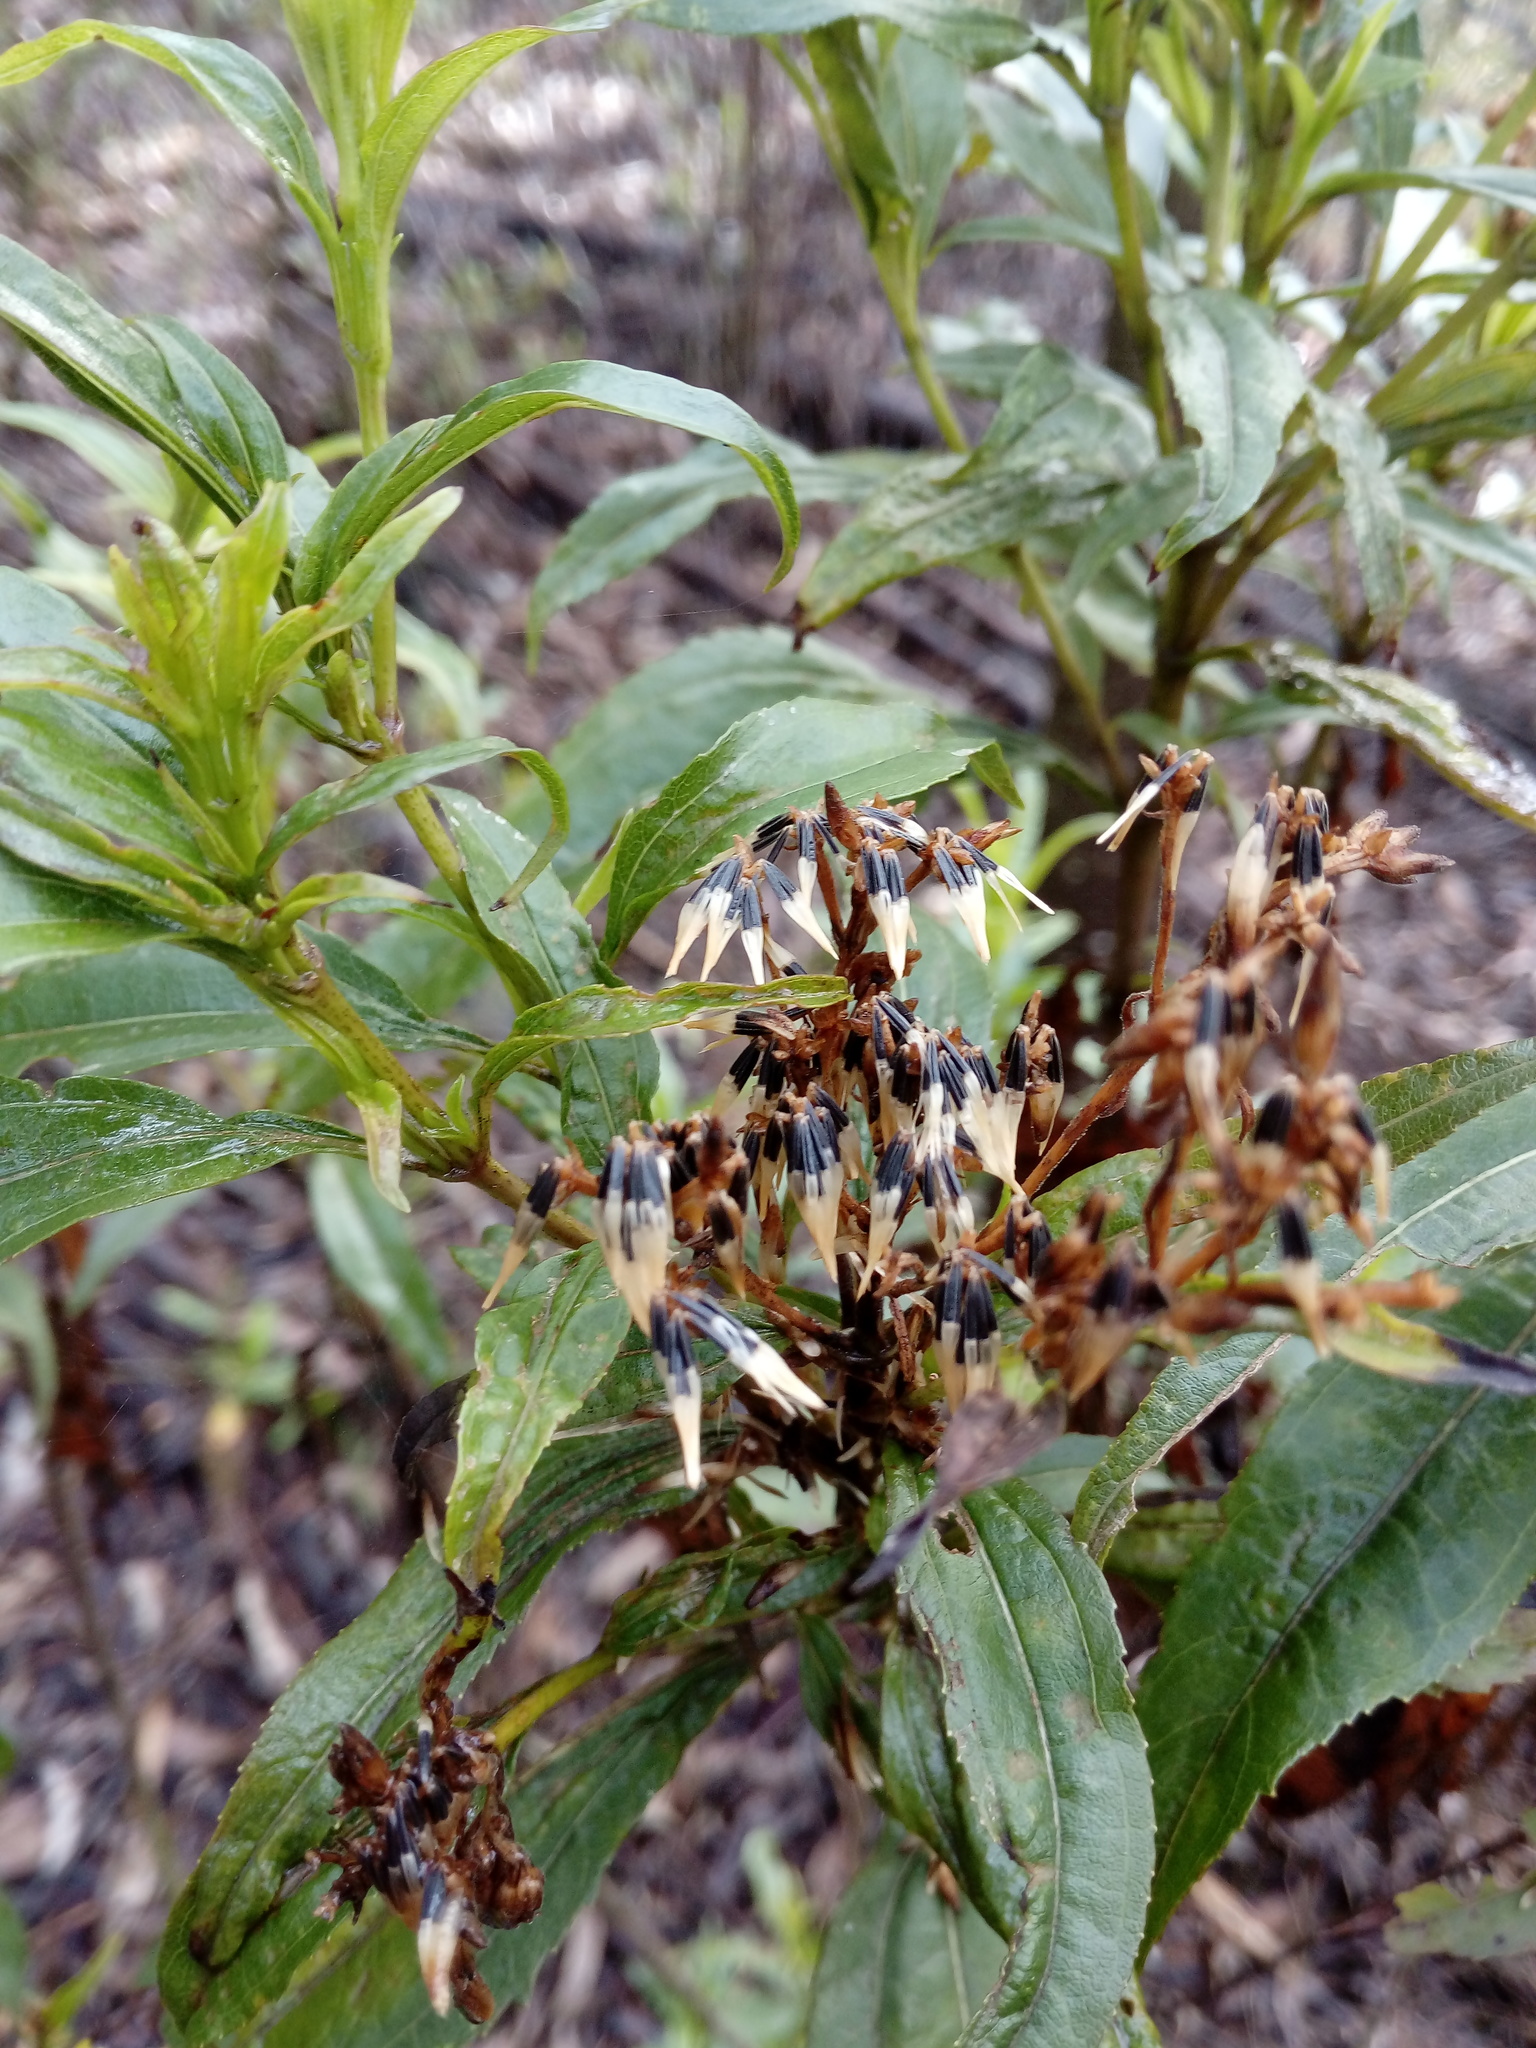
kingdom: Plantae
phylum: Tracheophyta
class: Magnoliopsida
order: Asterales
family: Asteraceae
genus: Chromolaena
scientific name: Chromolaena perglabra
